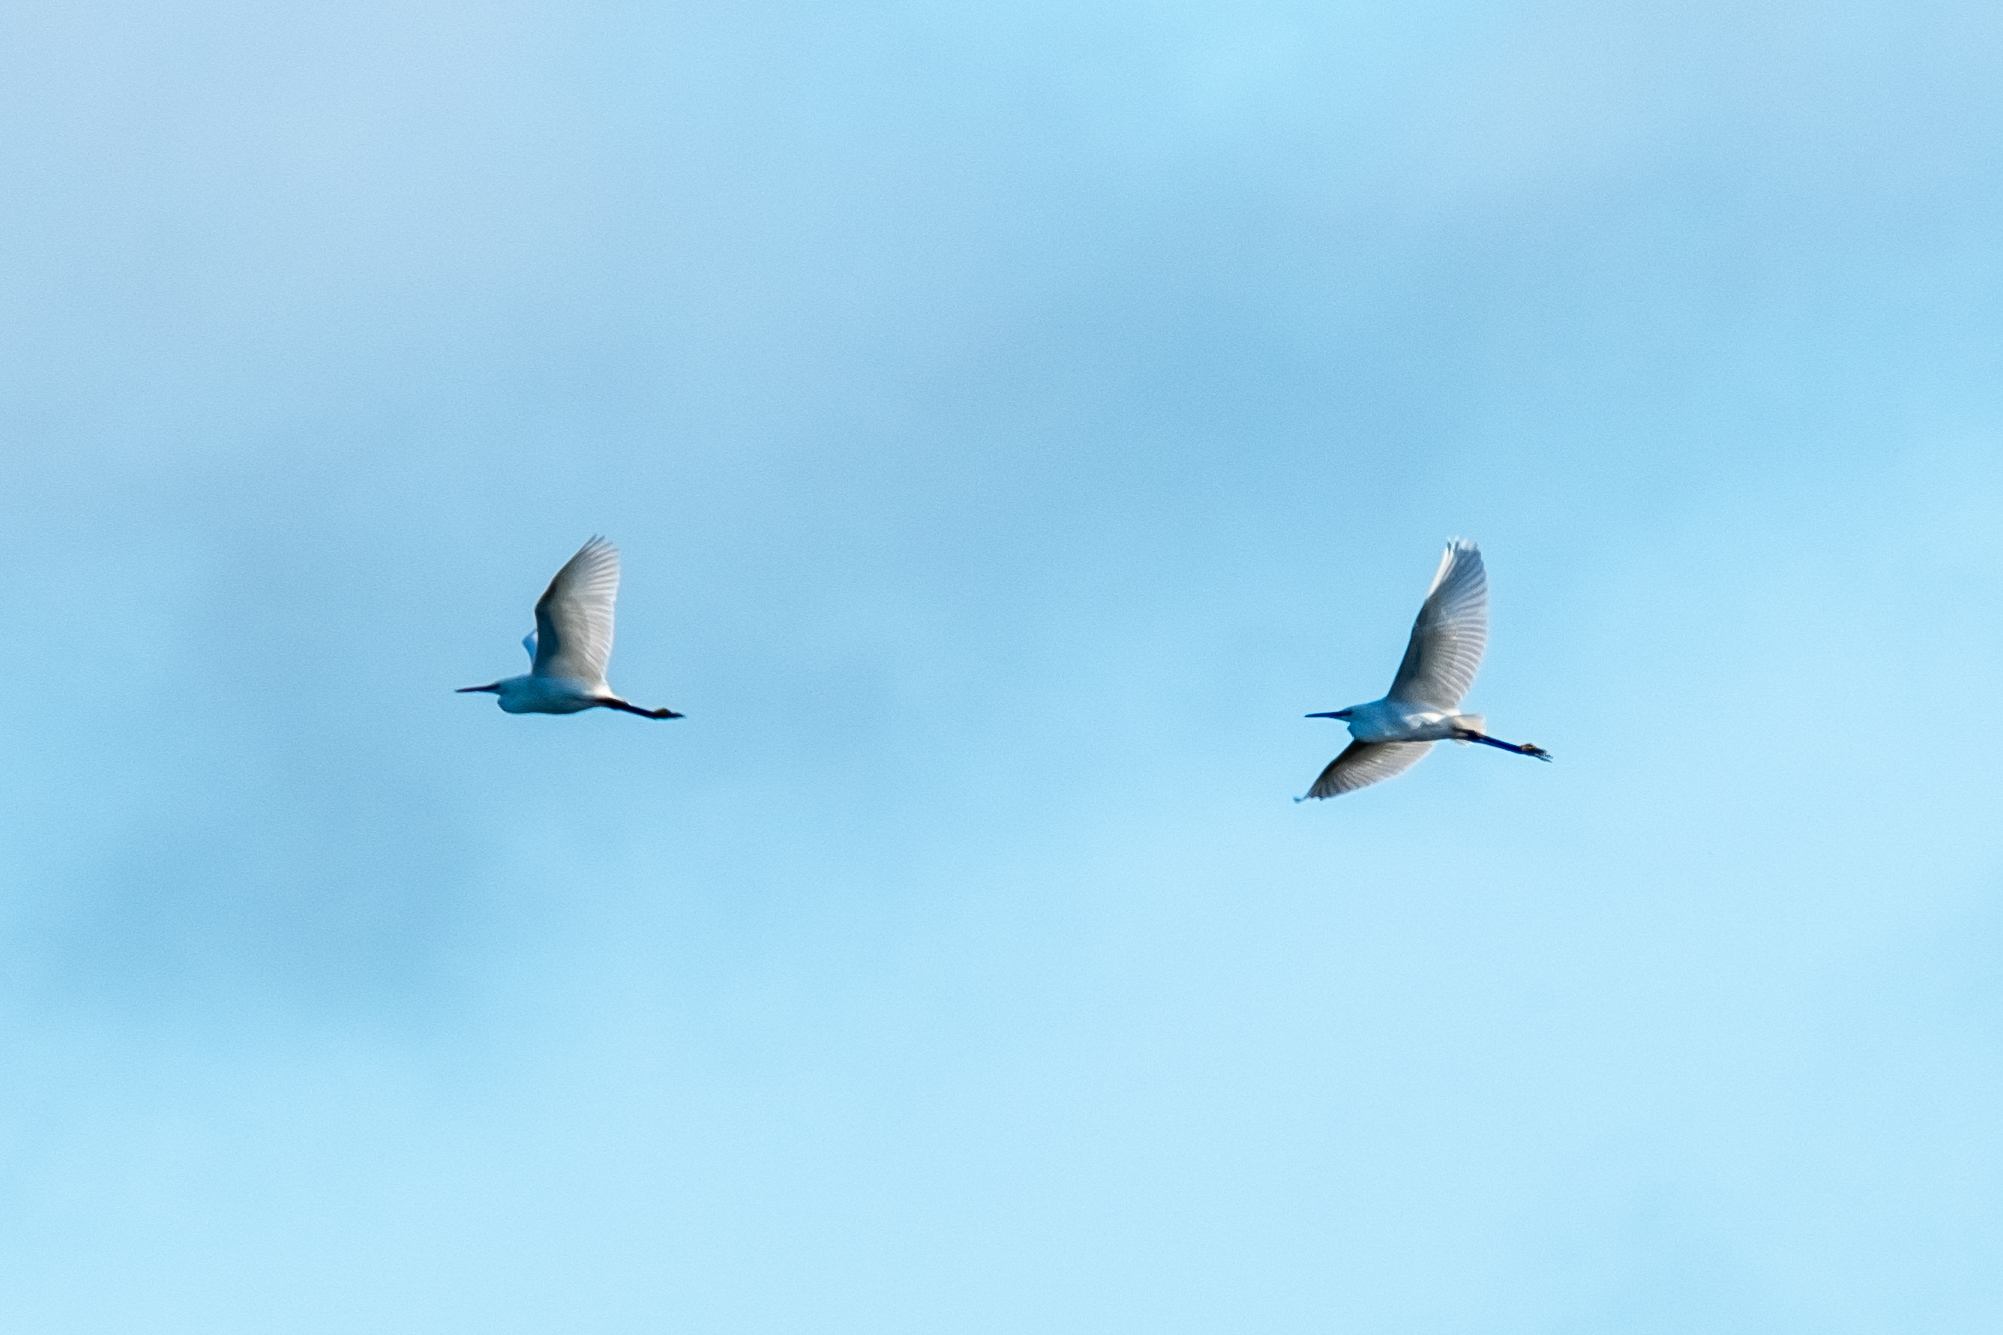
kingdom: Animalia
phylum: Chordata
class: Aves
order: Pelecaniformes
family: Ardeidae
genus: Egretta
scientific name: Egretta garzetta
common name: Little egret
